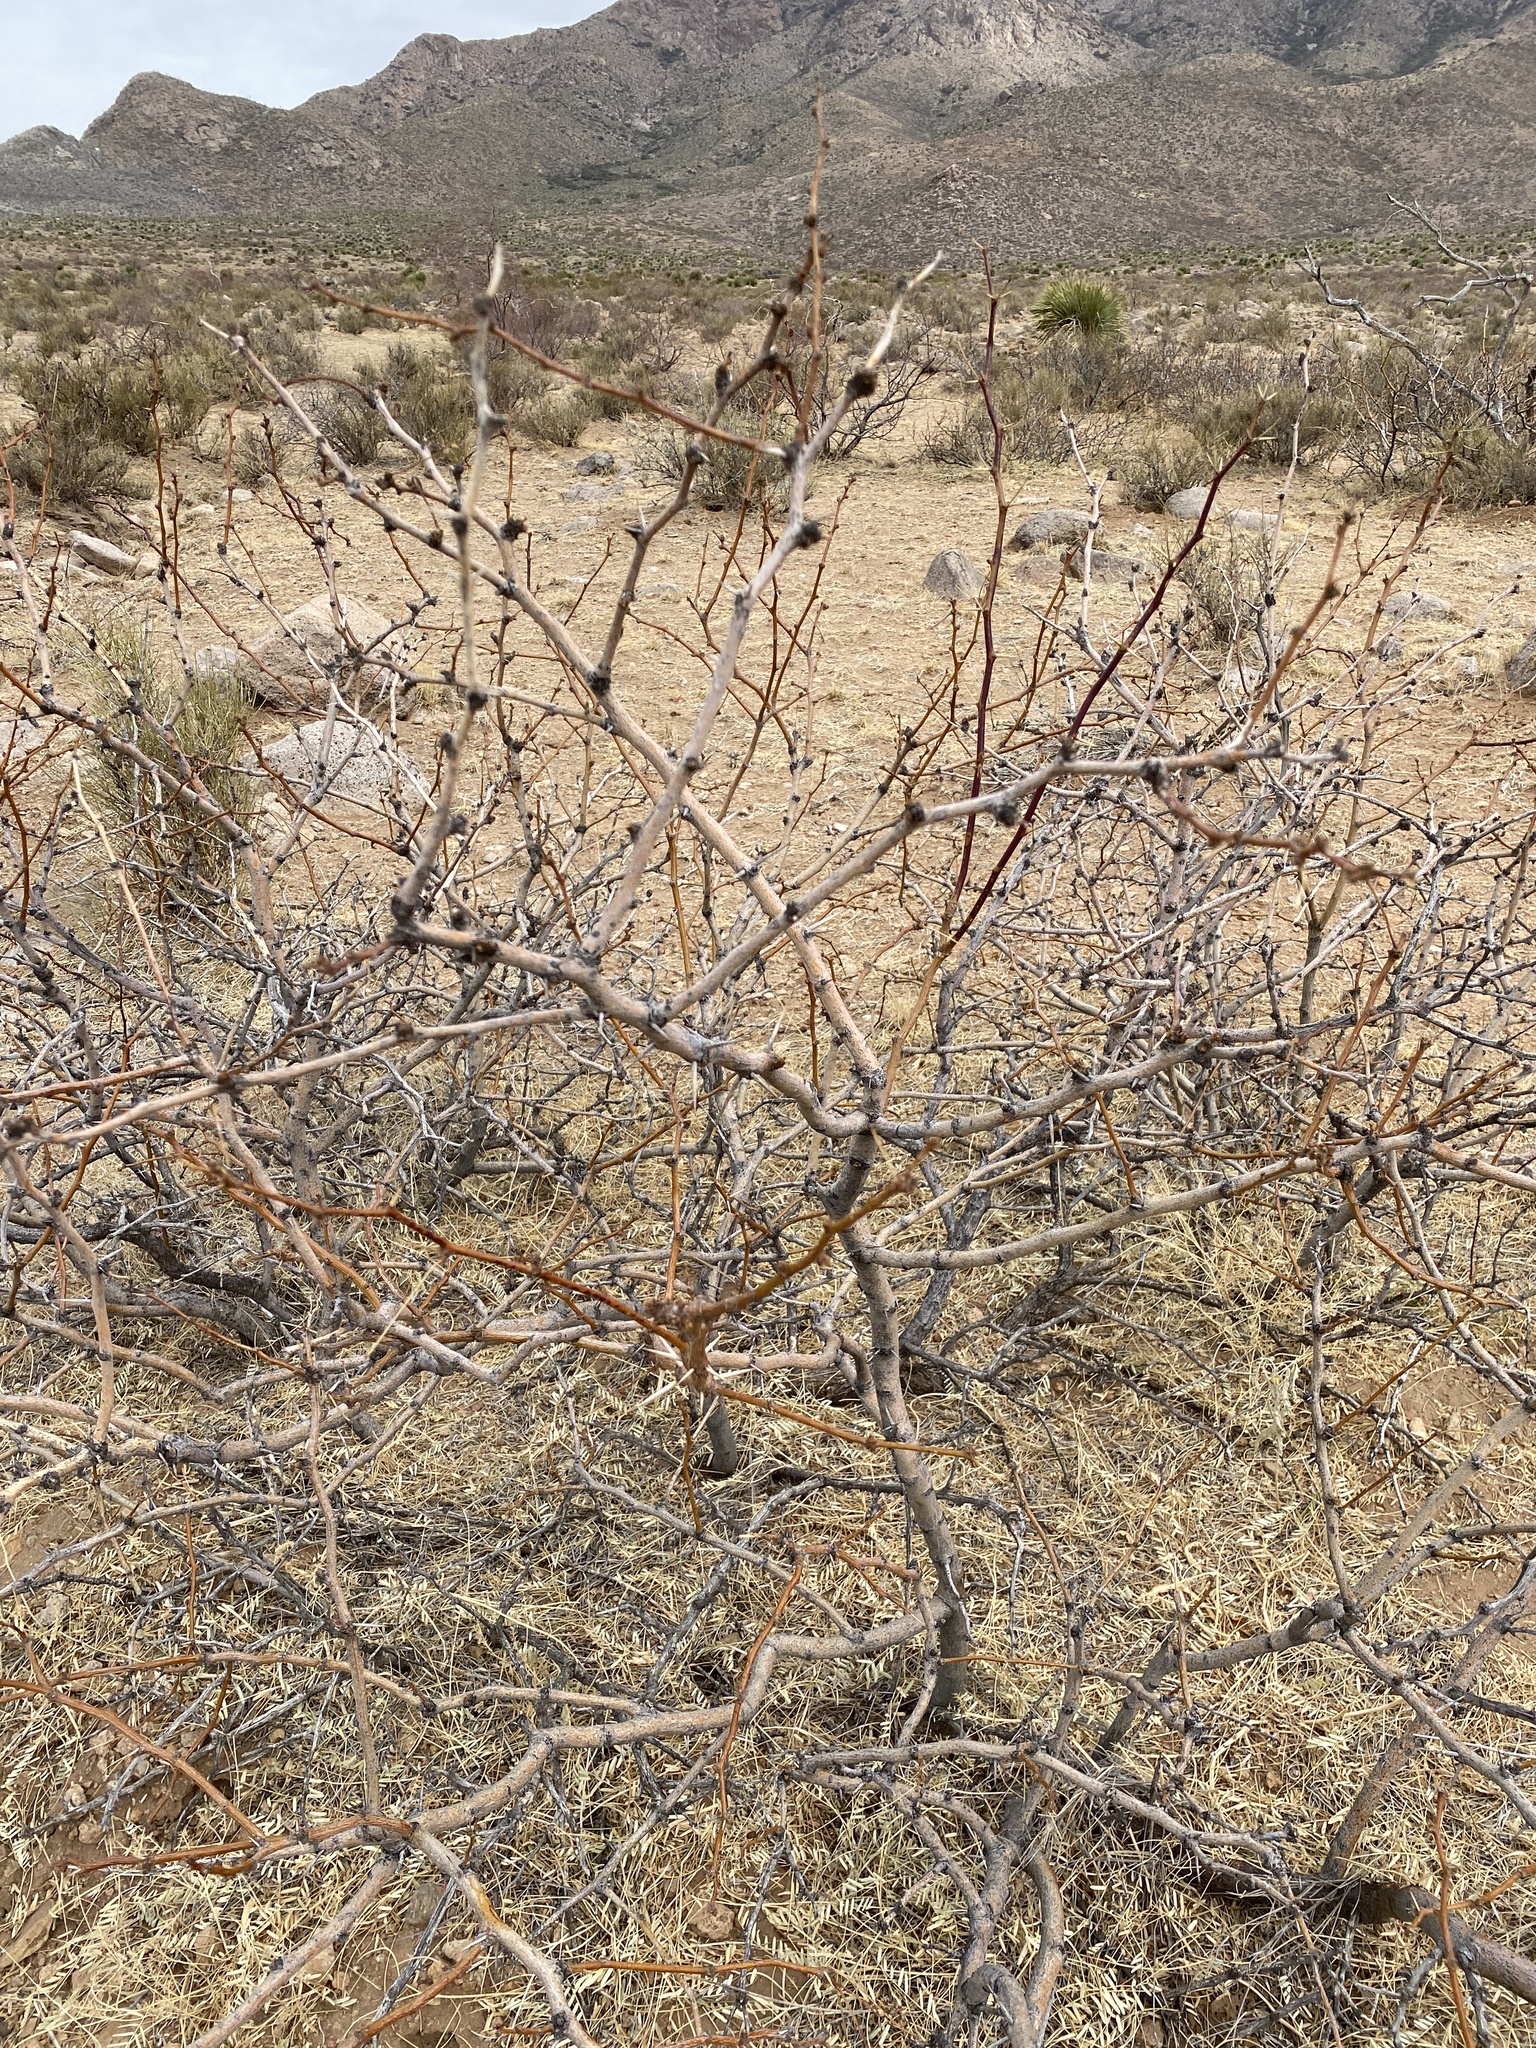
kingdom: Plantae
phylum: Tracheophyta
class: Magnoliopsida
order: Fabales
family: Fabaceae
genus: Prosopis
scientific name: Prosopis glandulosa
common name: Honey mesquite
